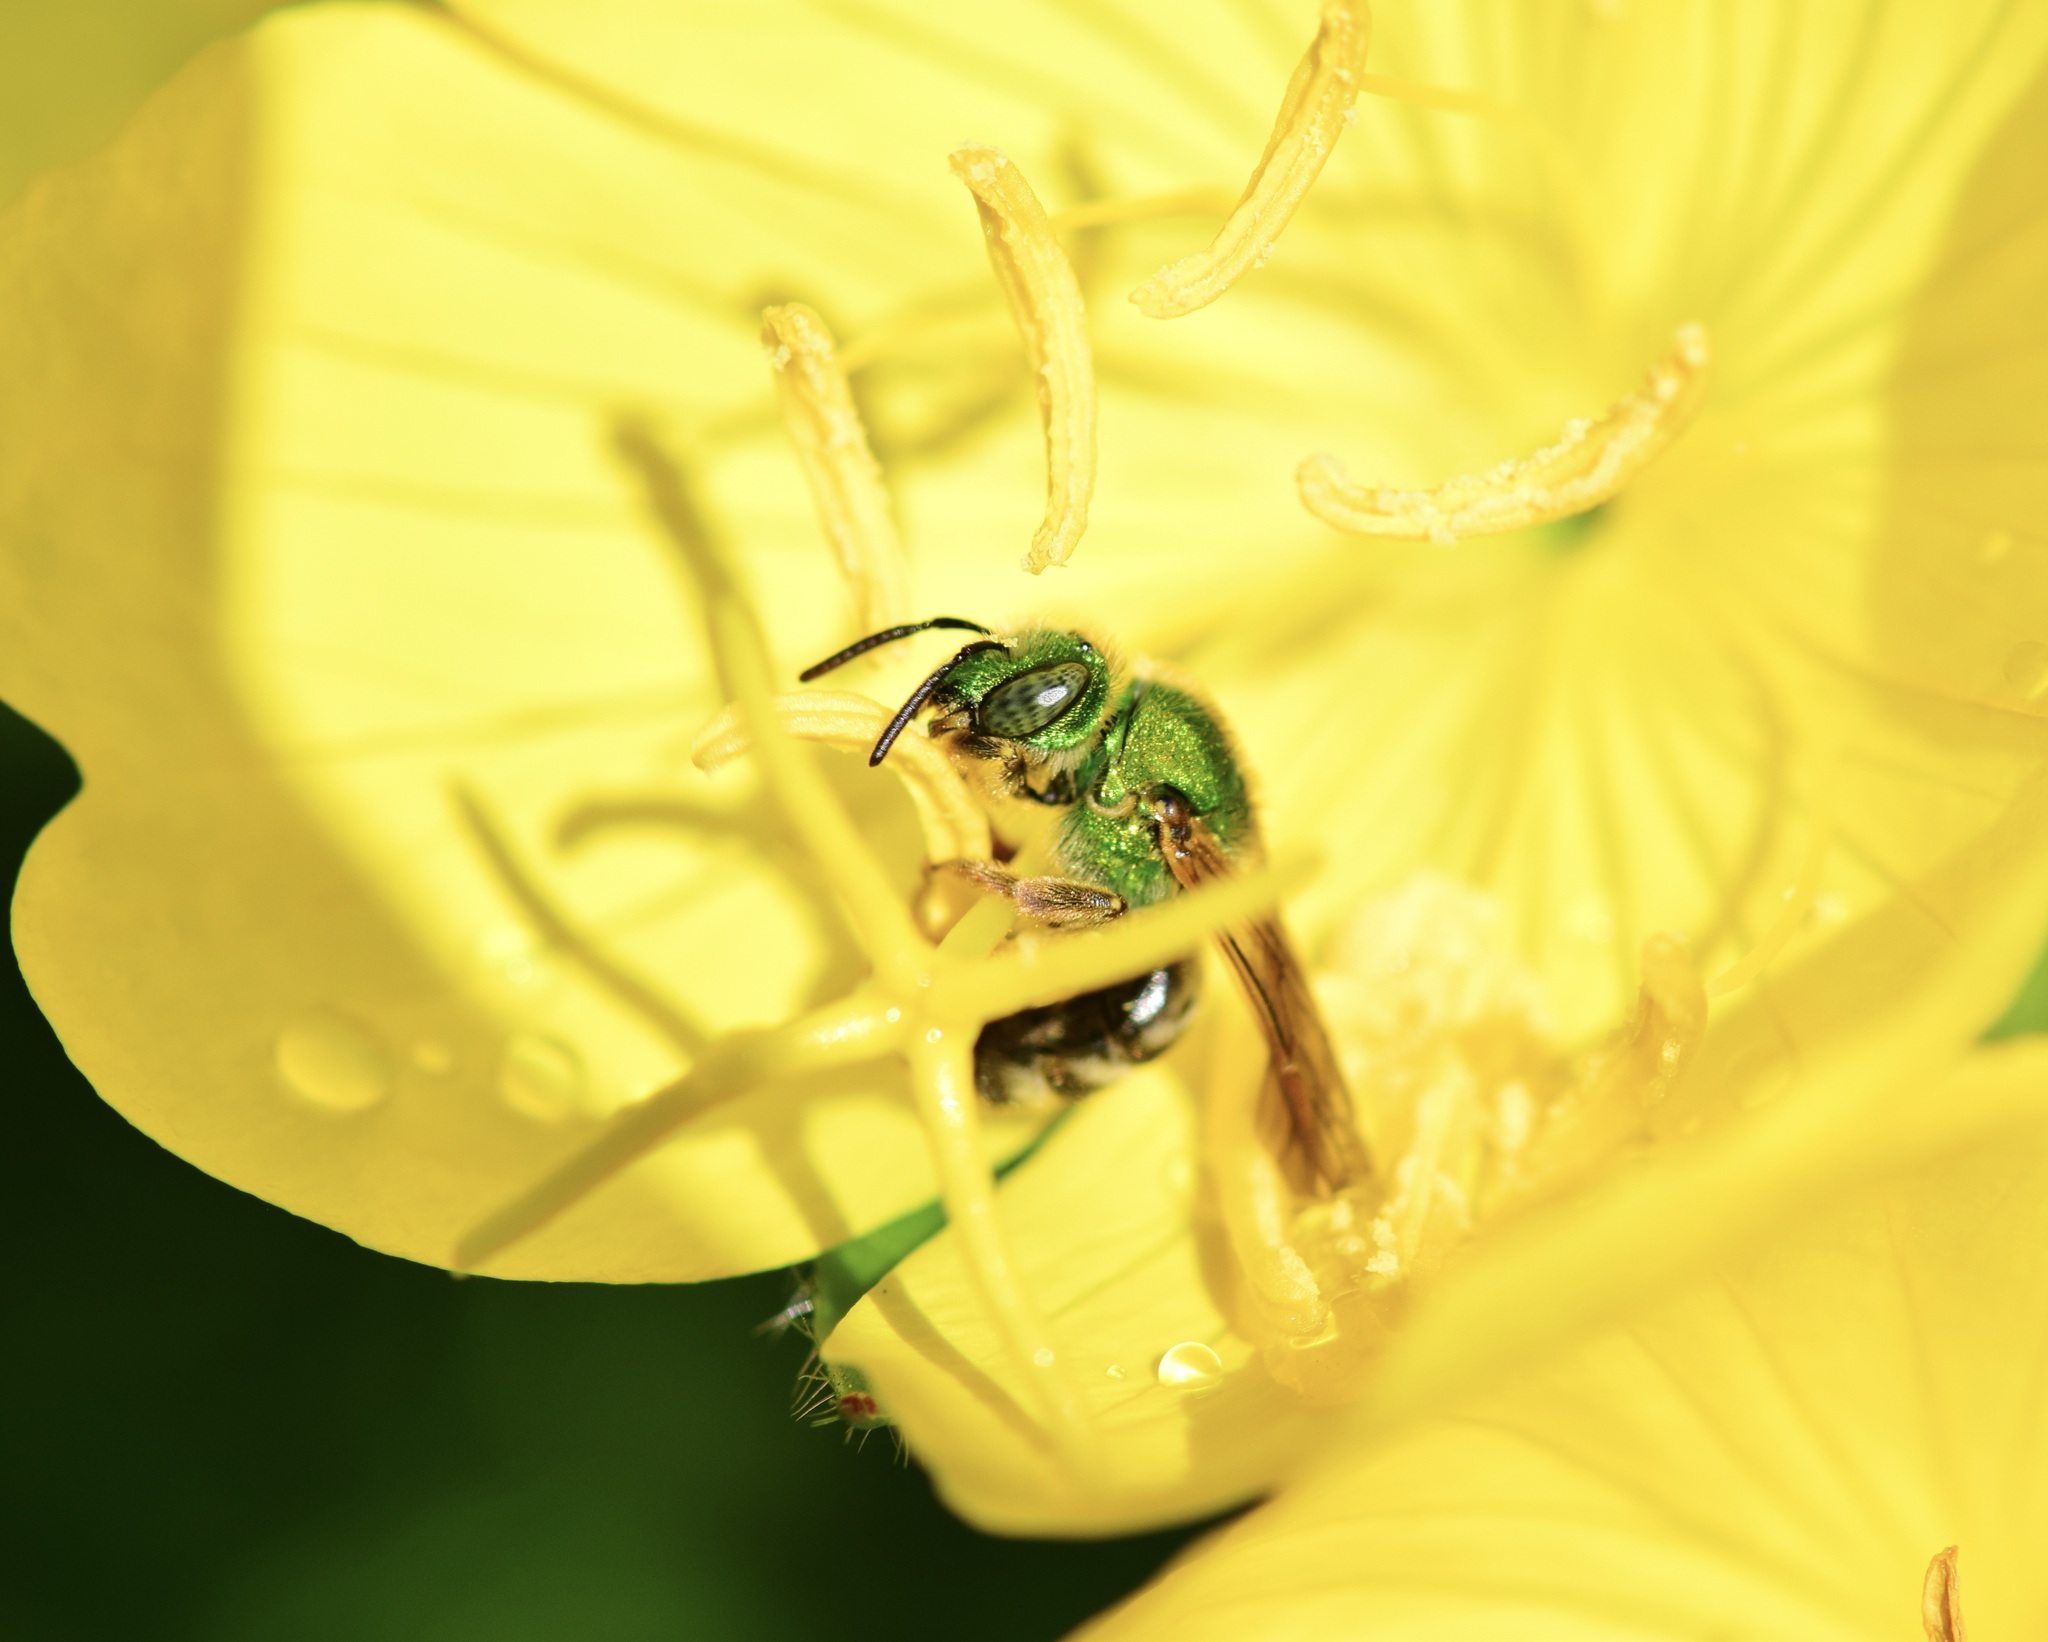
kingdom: Animalia
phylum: Arthropoda
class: Insecta
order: Hymenoptera
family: Halictidae
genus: Agapostemon
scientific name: Agapostemon virescens
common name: Bicolored striped sweat bee
